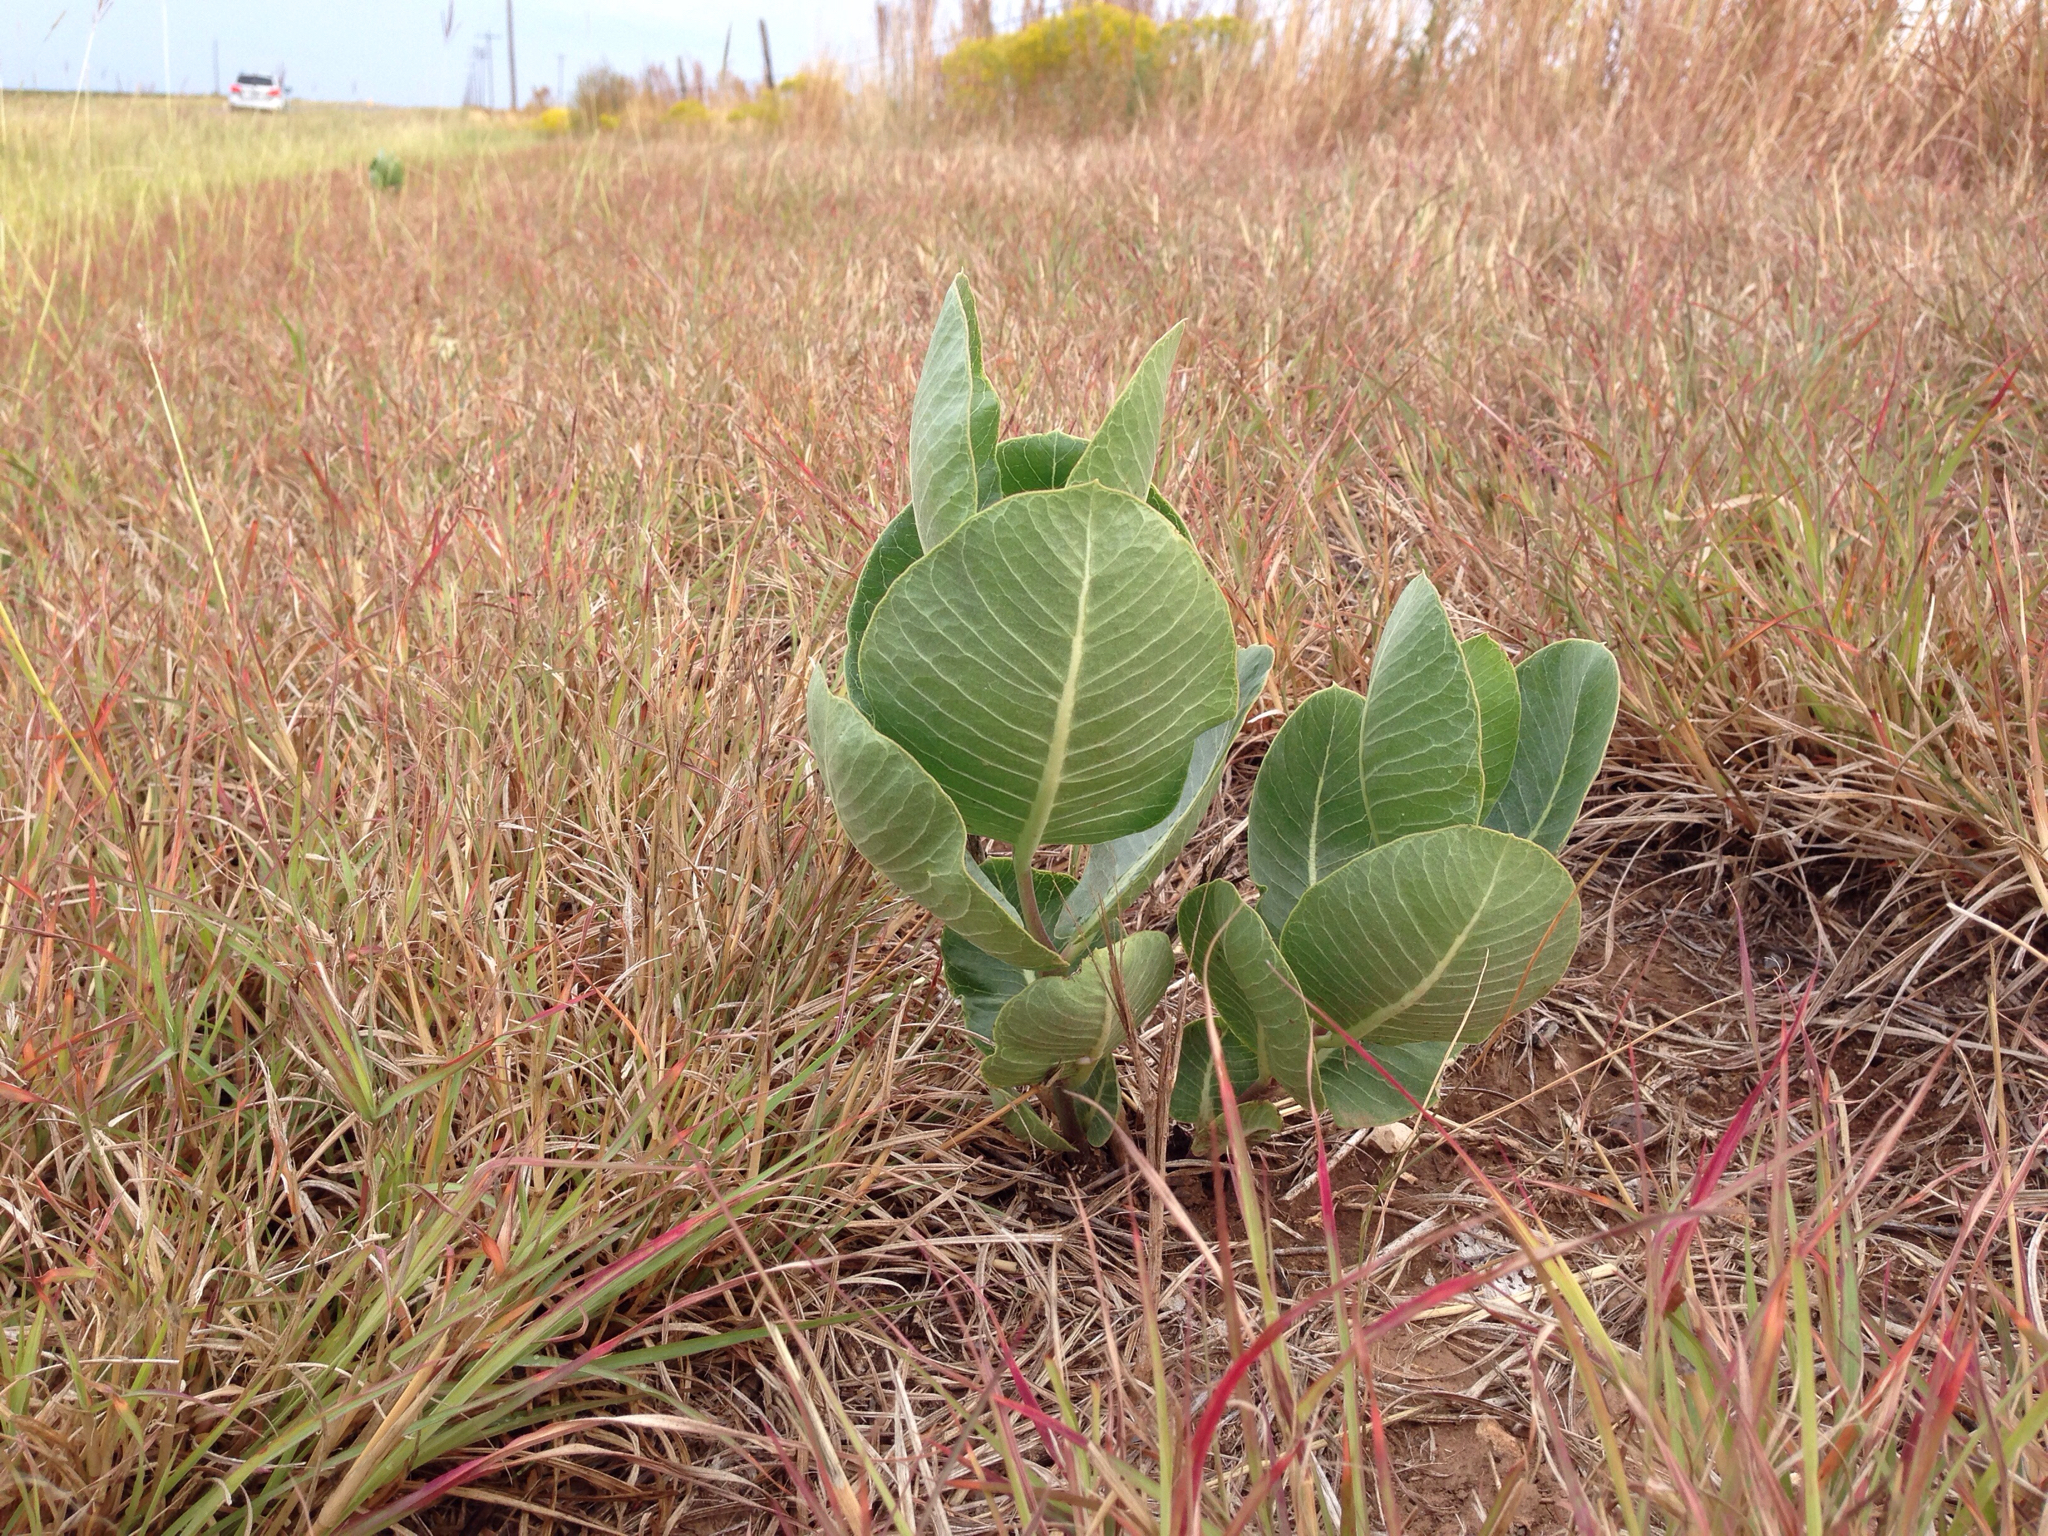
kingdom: Plantae
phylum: Tracheophyta
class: Magnoliopsida
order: Gentianales
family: Apocynaceae
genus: Asclepias
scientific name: Asclepias latifolia
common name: Broadleaf milkweed
